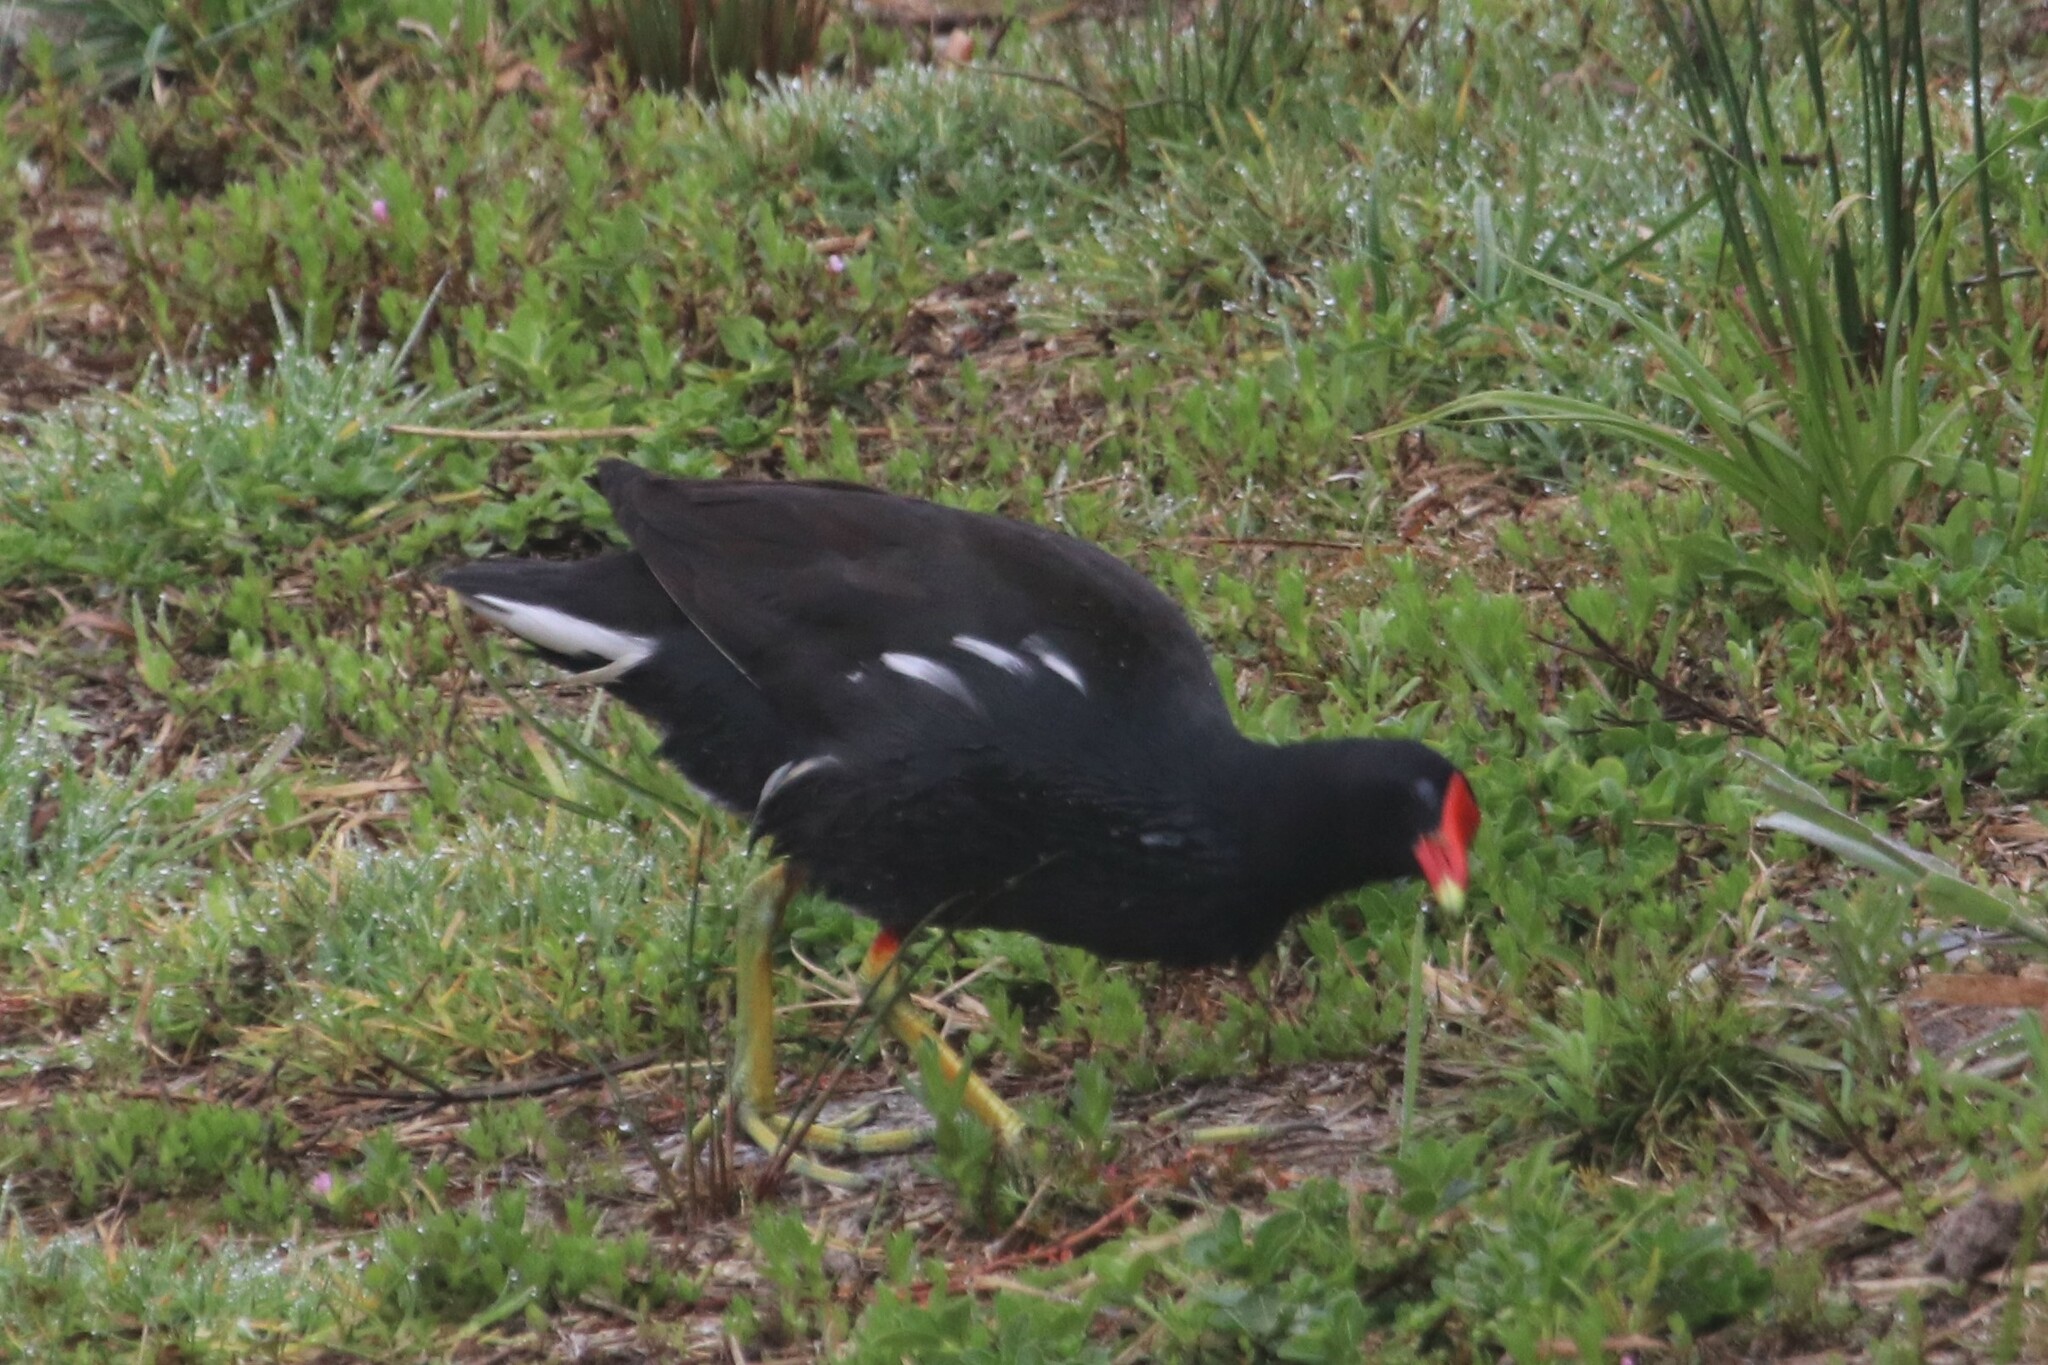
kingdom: Animalia
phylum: Chordata
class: Aves
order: Gruiformes
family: Rallidae
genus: Gallinula
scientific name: Gallinula chloropus
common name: Common moorhen
